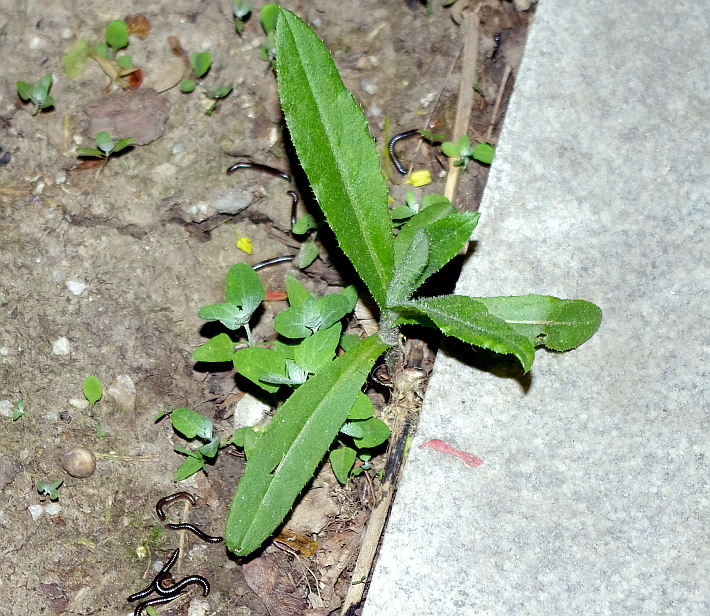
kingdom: Plantae
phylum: Tracheophyta
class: Magnoliopsida
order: Asterales
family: Asteraceae
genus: Cirsium
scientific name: Cirsium arvense
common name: Creeping thistle
